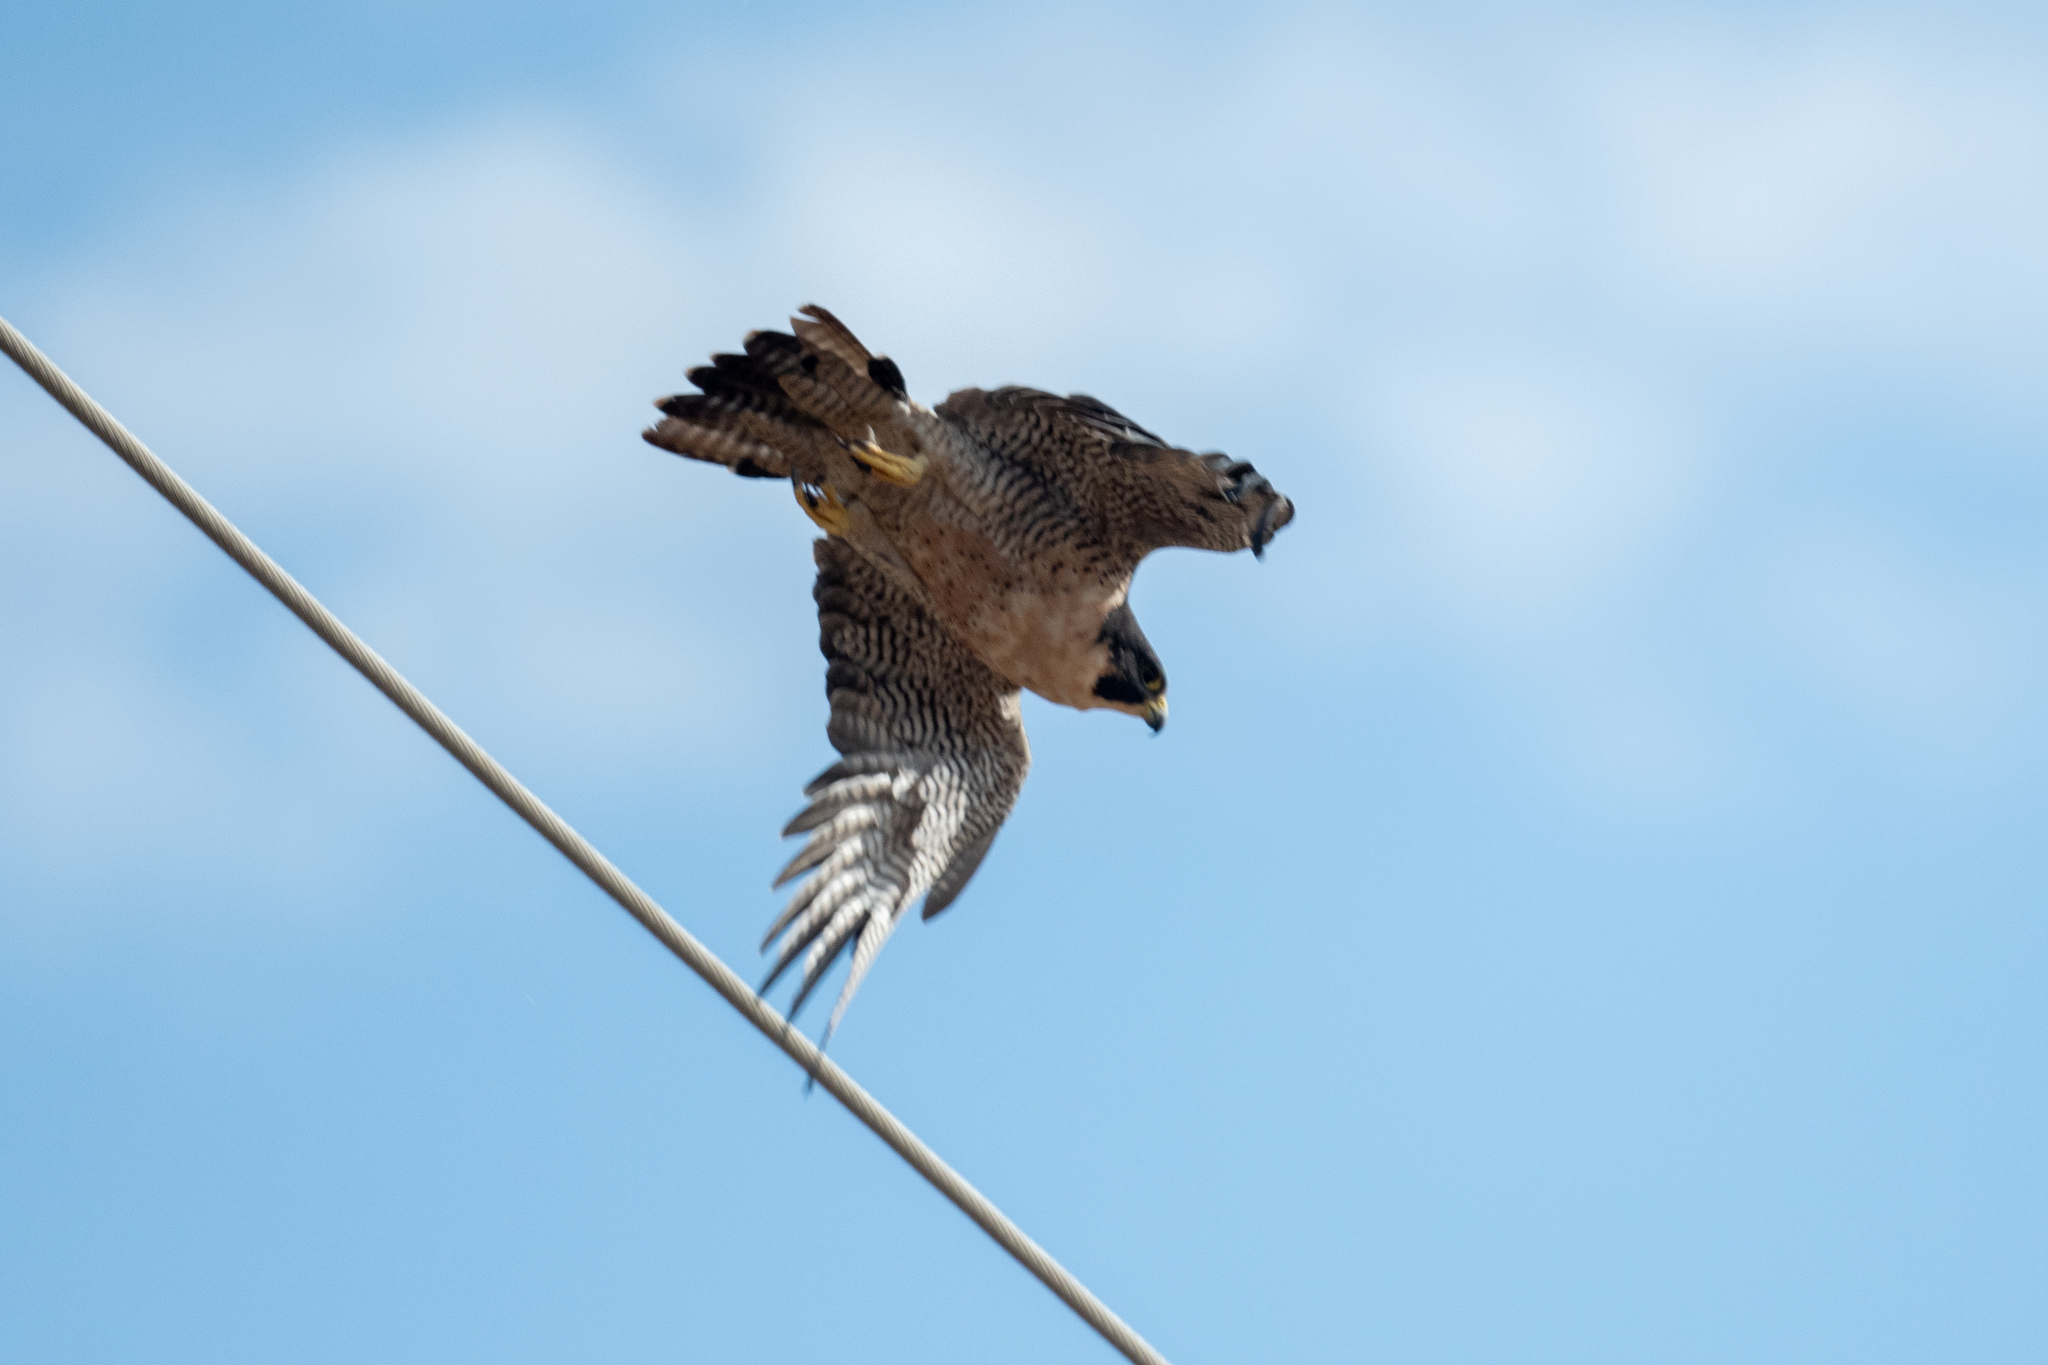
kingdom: Animalia
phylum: Chordata
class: Aves
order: Falconiformes
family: Falconidae
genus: Falco
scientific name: Falco peregrinus
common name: Peregrine falcon
